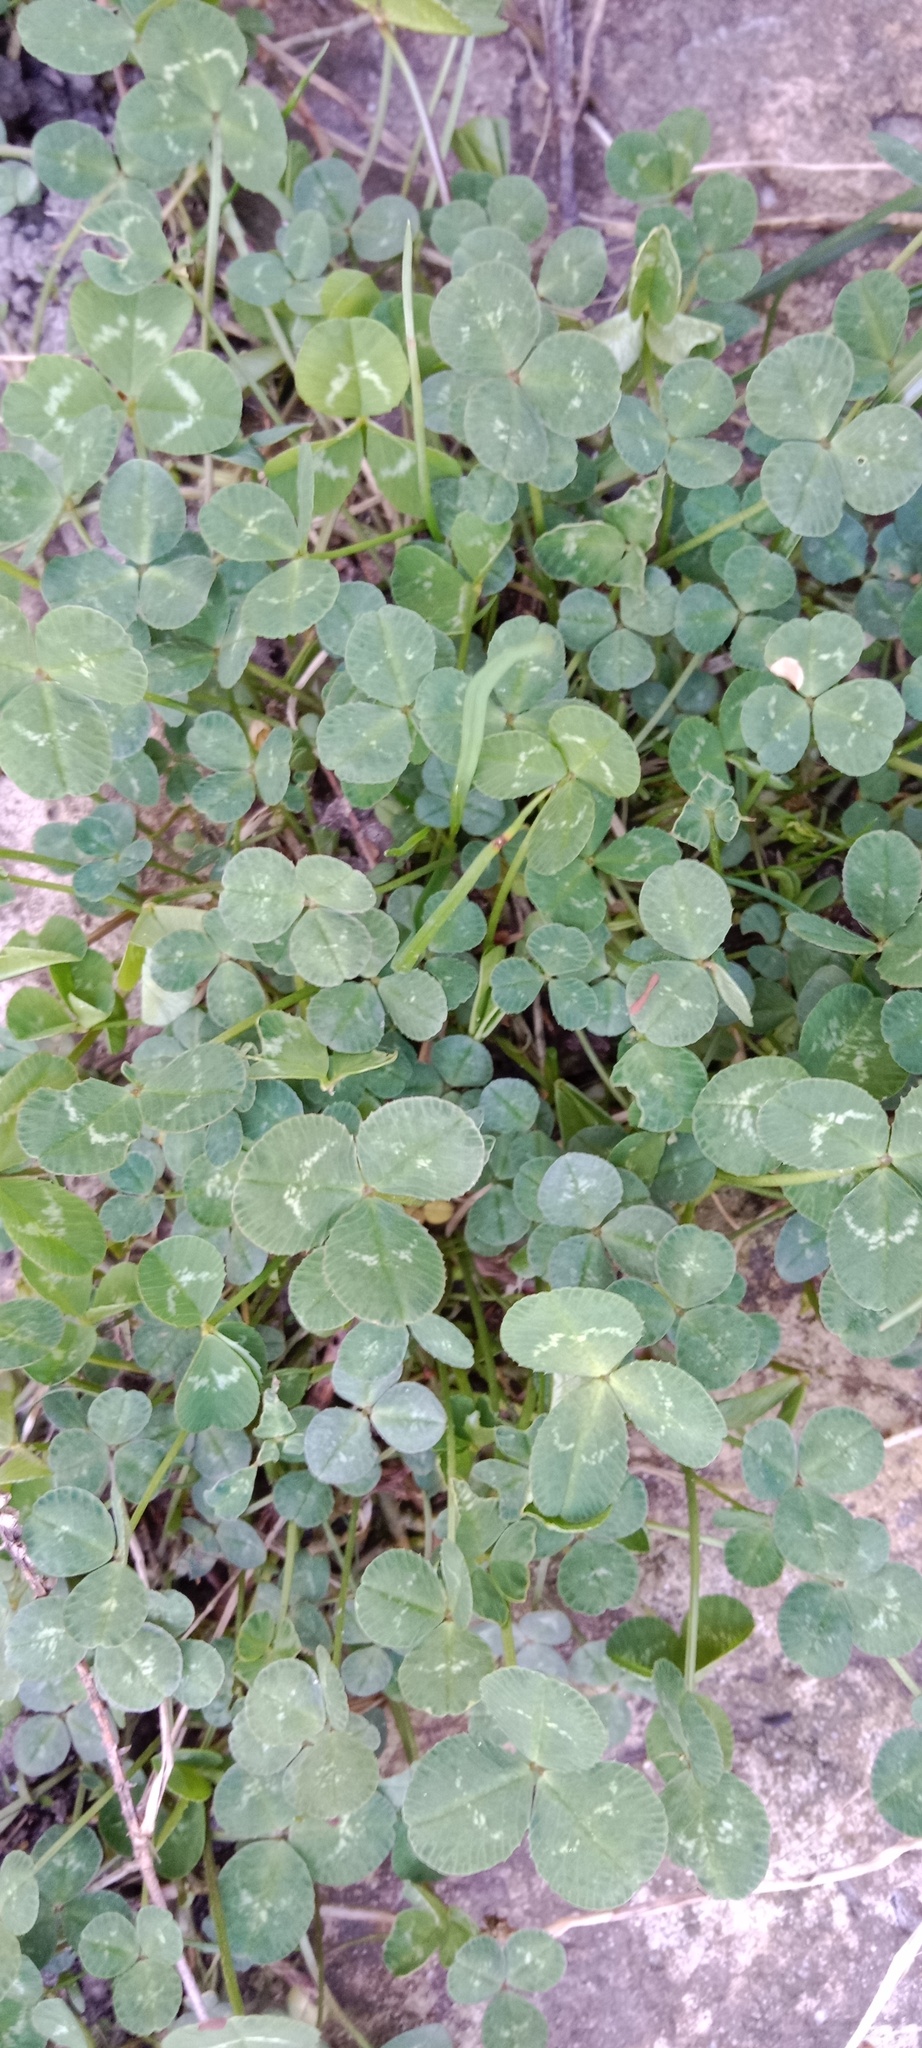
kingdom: Plantae
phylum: Tracheophyta
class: Magnoliopsida
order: Fabales
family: Fabaceae
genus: Trifolium
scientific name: Trifolium repens
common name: White clover
